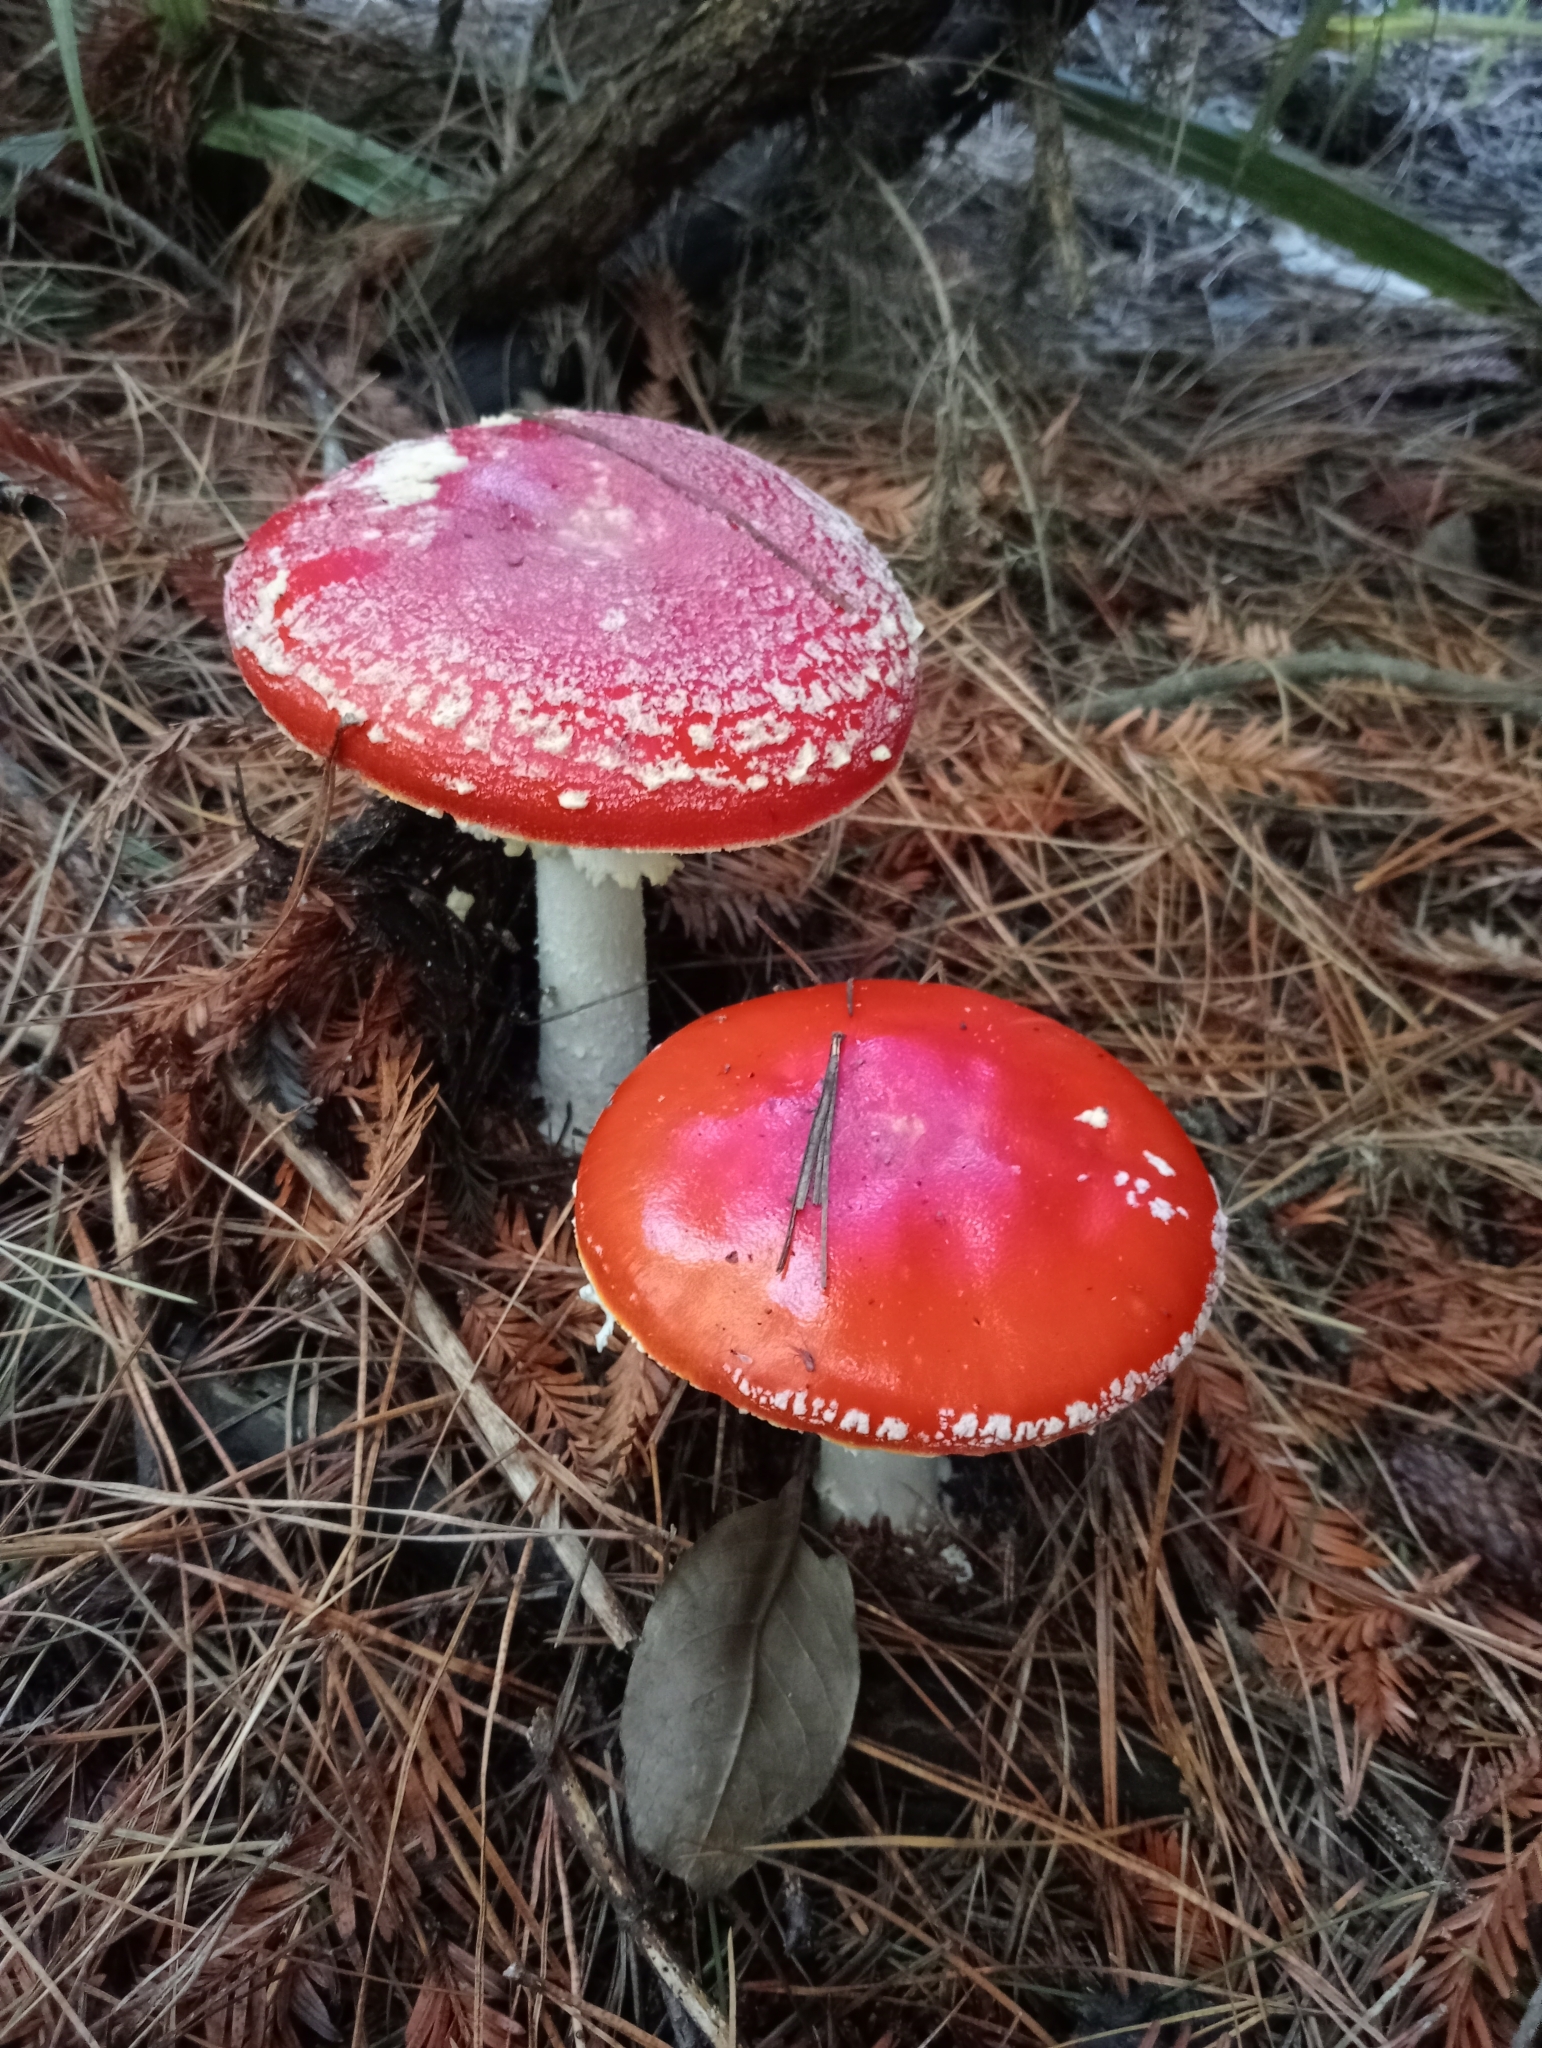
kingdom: Fungi
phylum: Basidiomycota
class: Agaricomycetes
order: Agaricales
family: Amanitaceae
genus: Amanita
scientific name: Amanita muscaria
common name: Fly agaric
